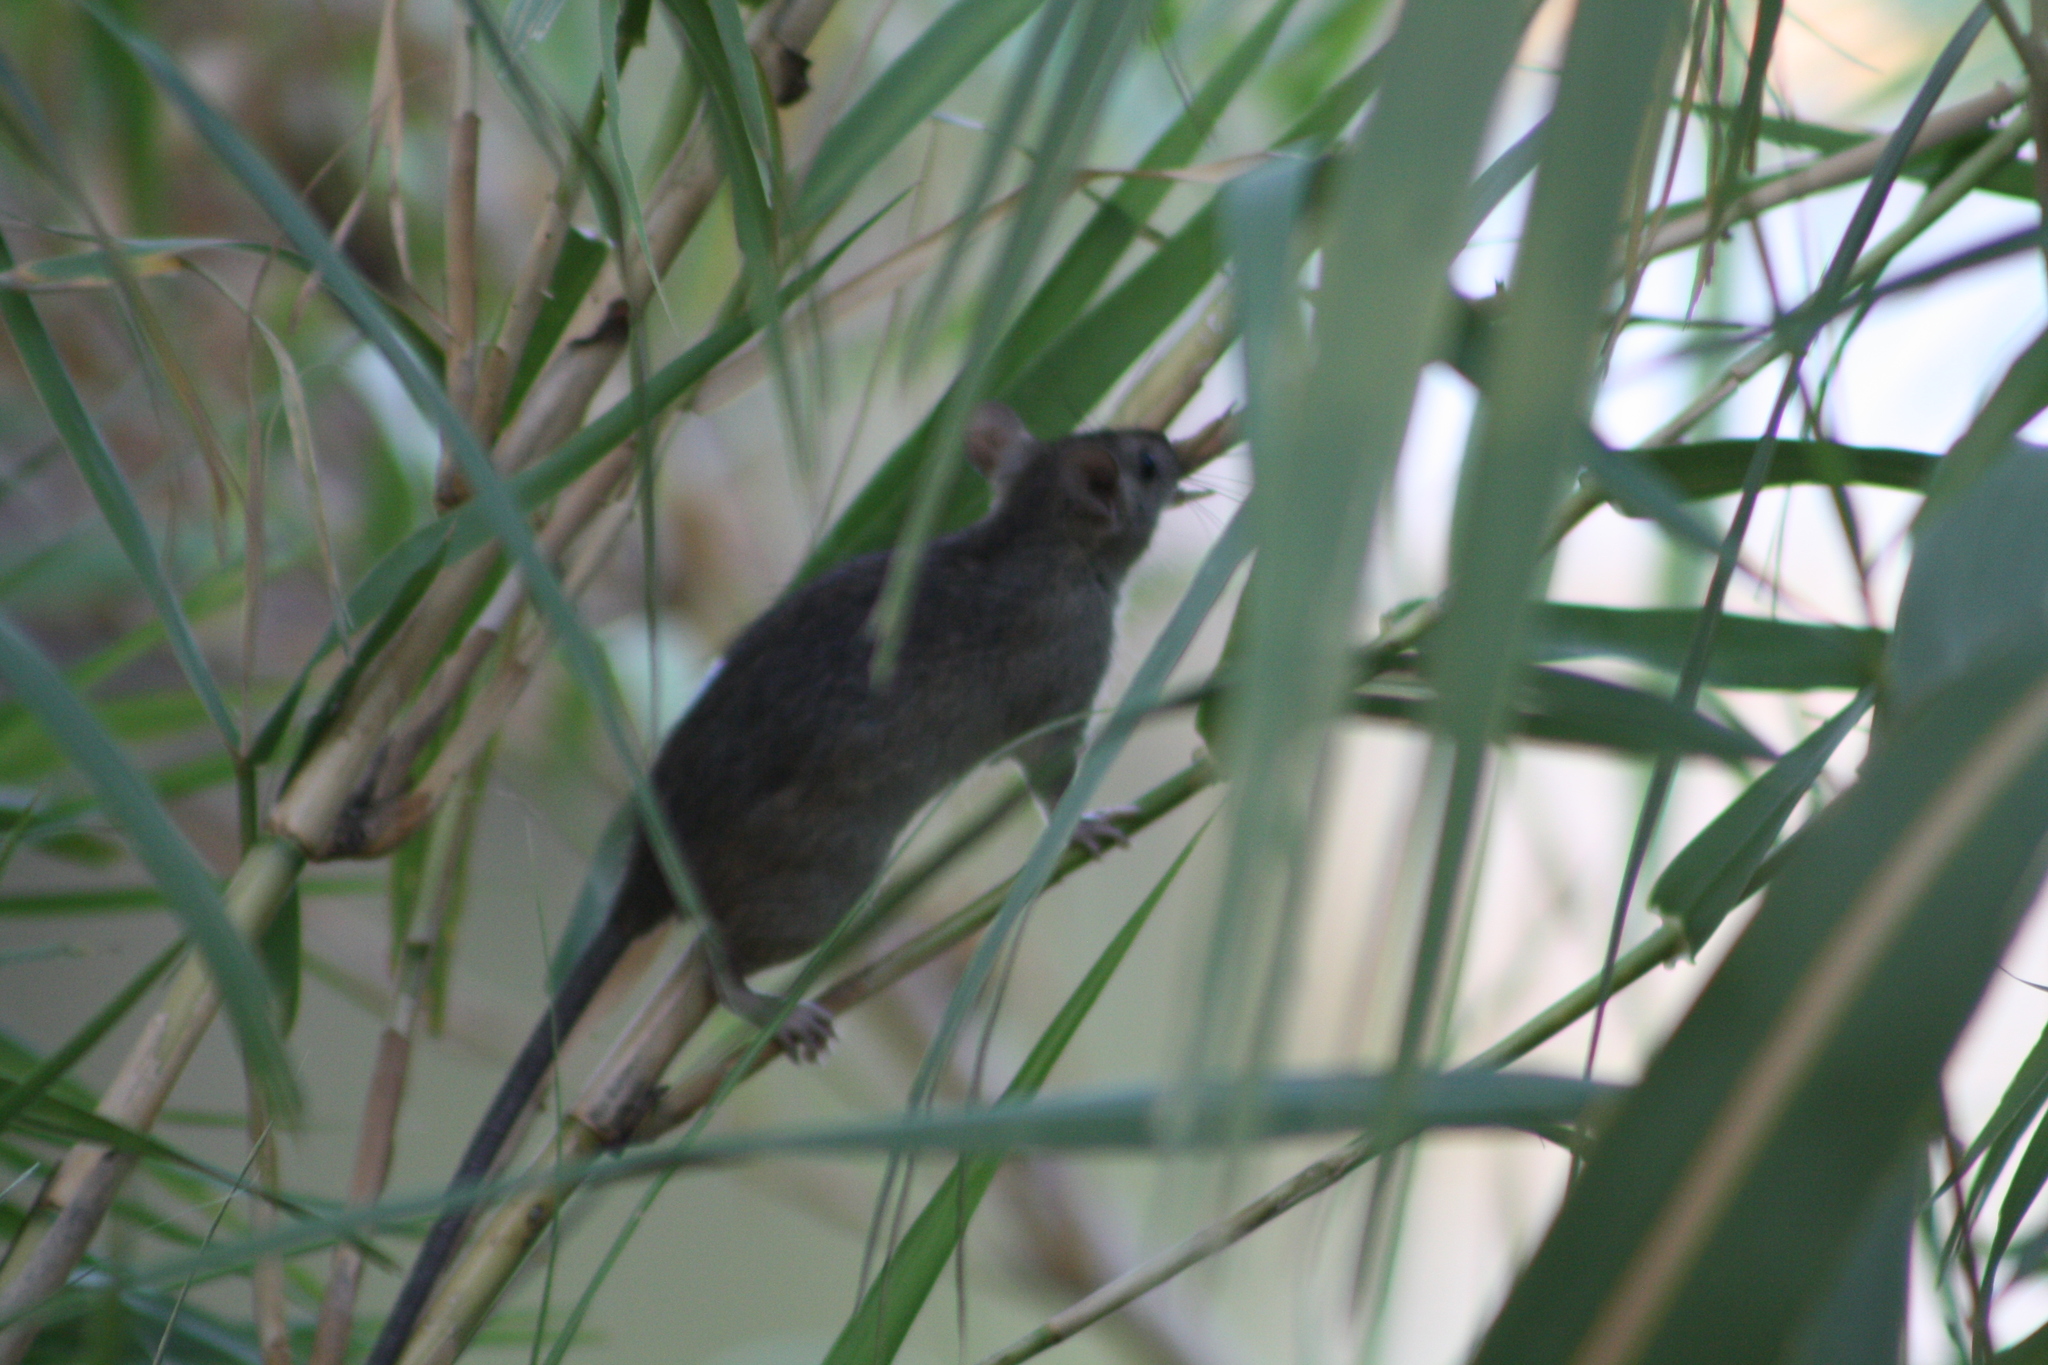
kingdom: Animalia
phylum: Chordata
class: Mammalia
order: Rodentia
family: Muridae
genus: Rattus
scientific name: Rattus rattus
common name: Black rat
